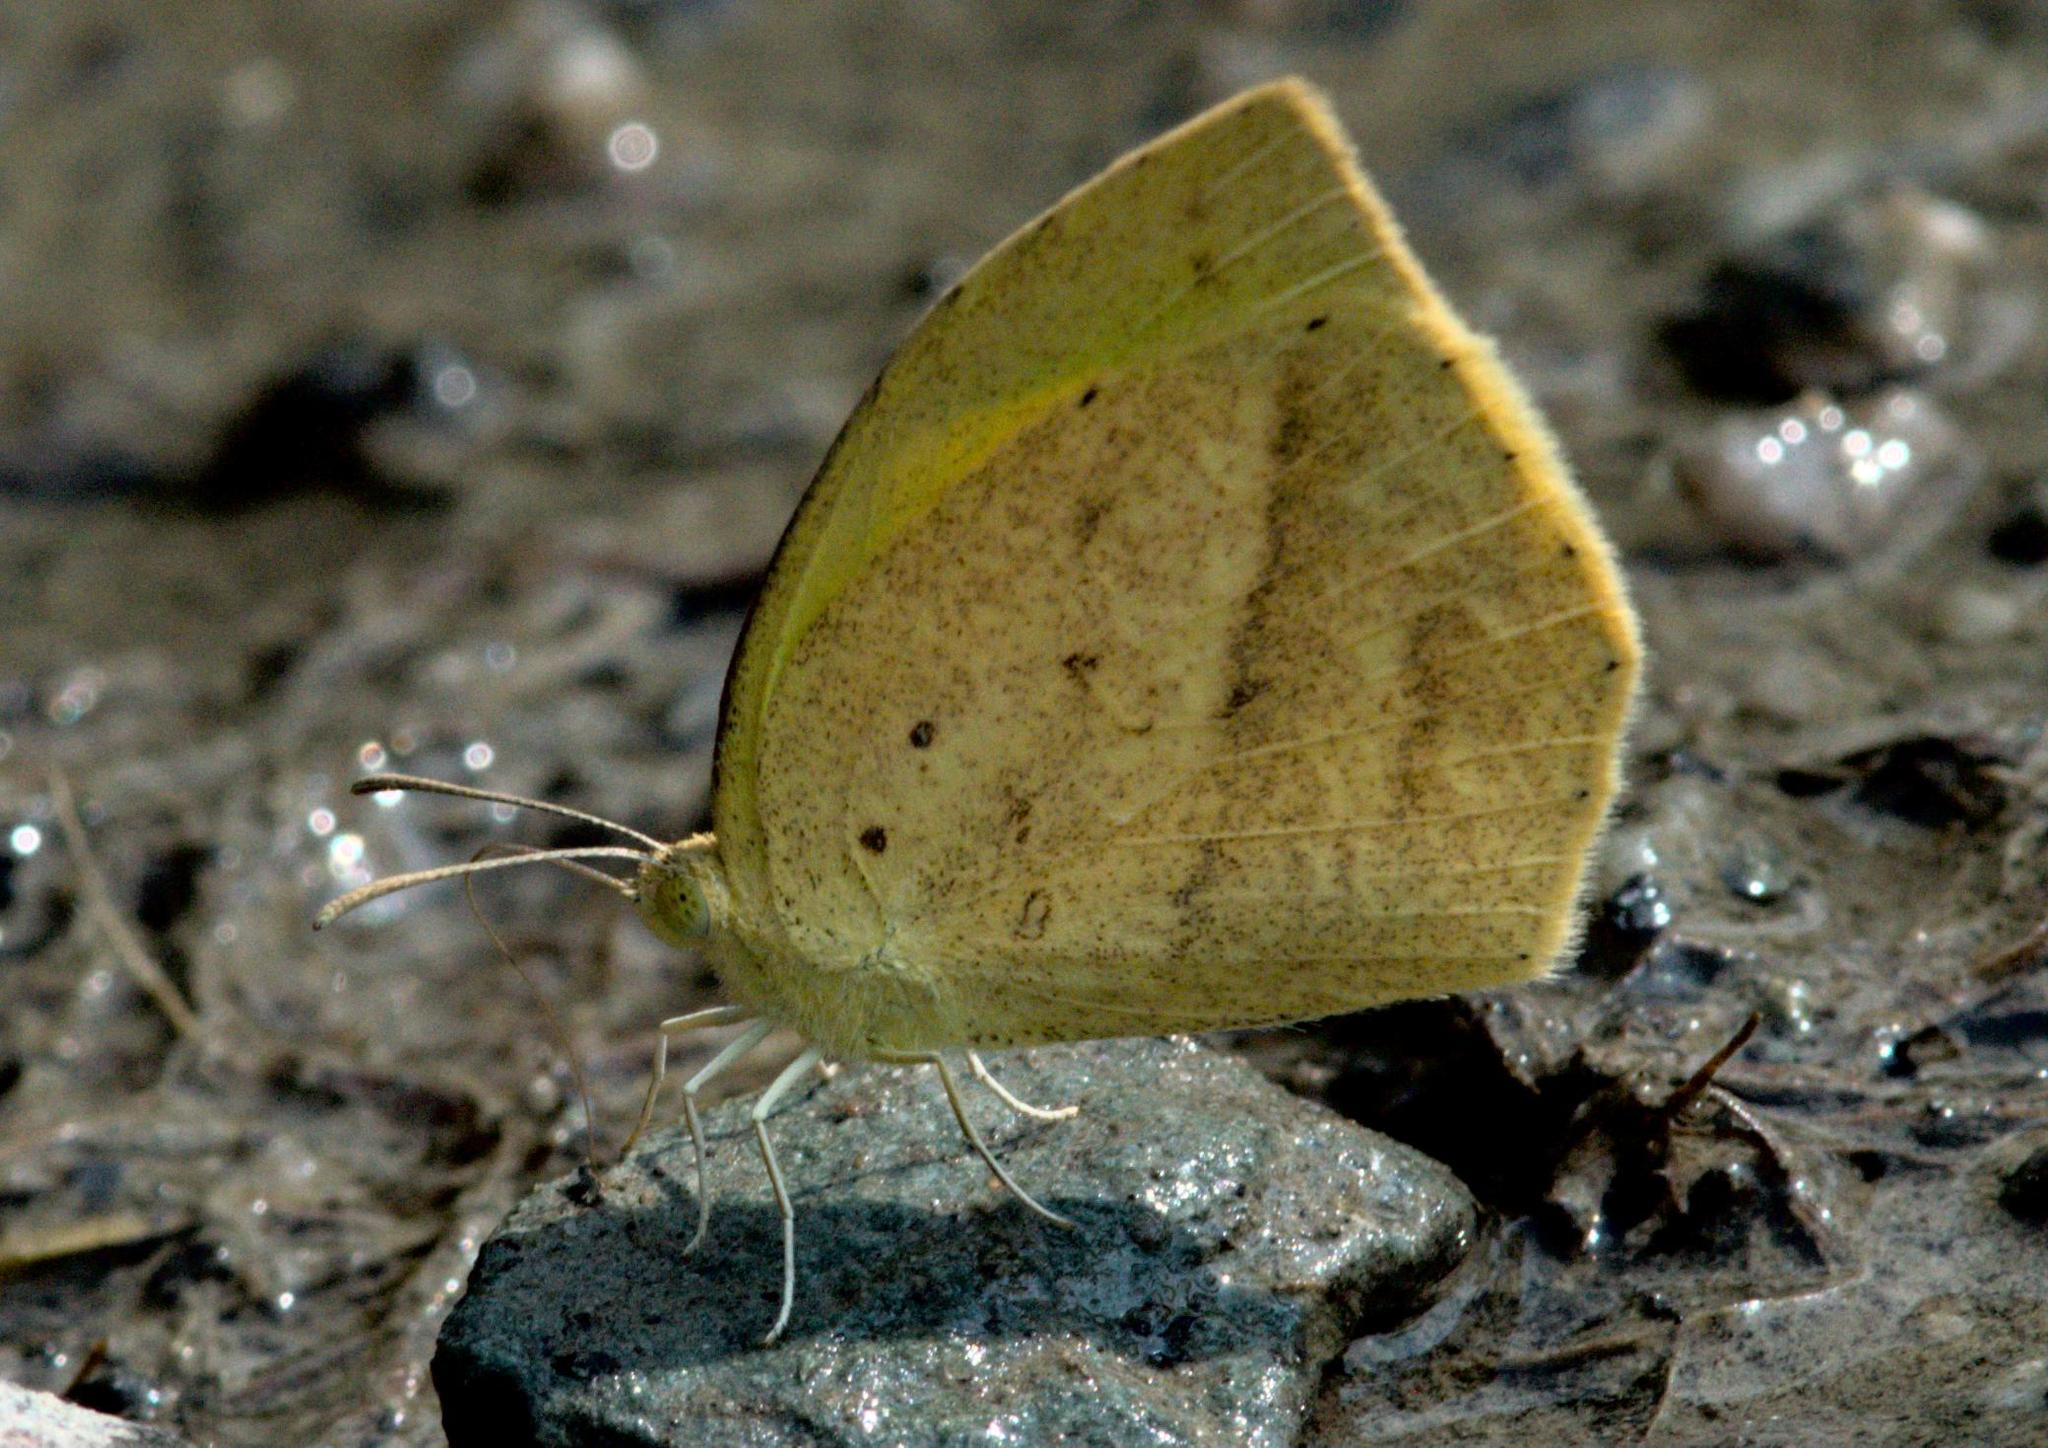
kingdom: Animalia
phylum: Arthropoda
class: Insecta
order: Lepidoptera
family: Pieridae
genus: Eurema
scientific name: Eurema laeta
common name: Spotless grass yellow
